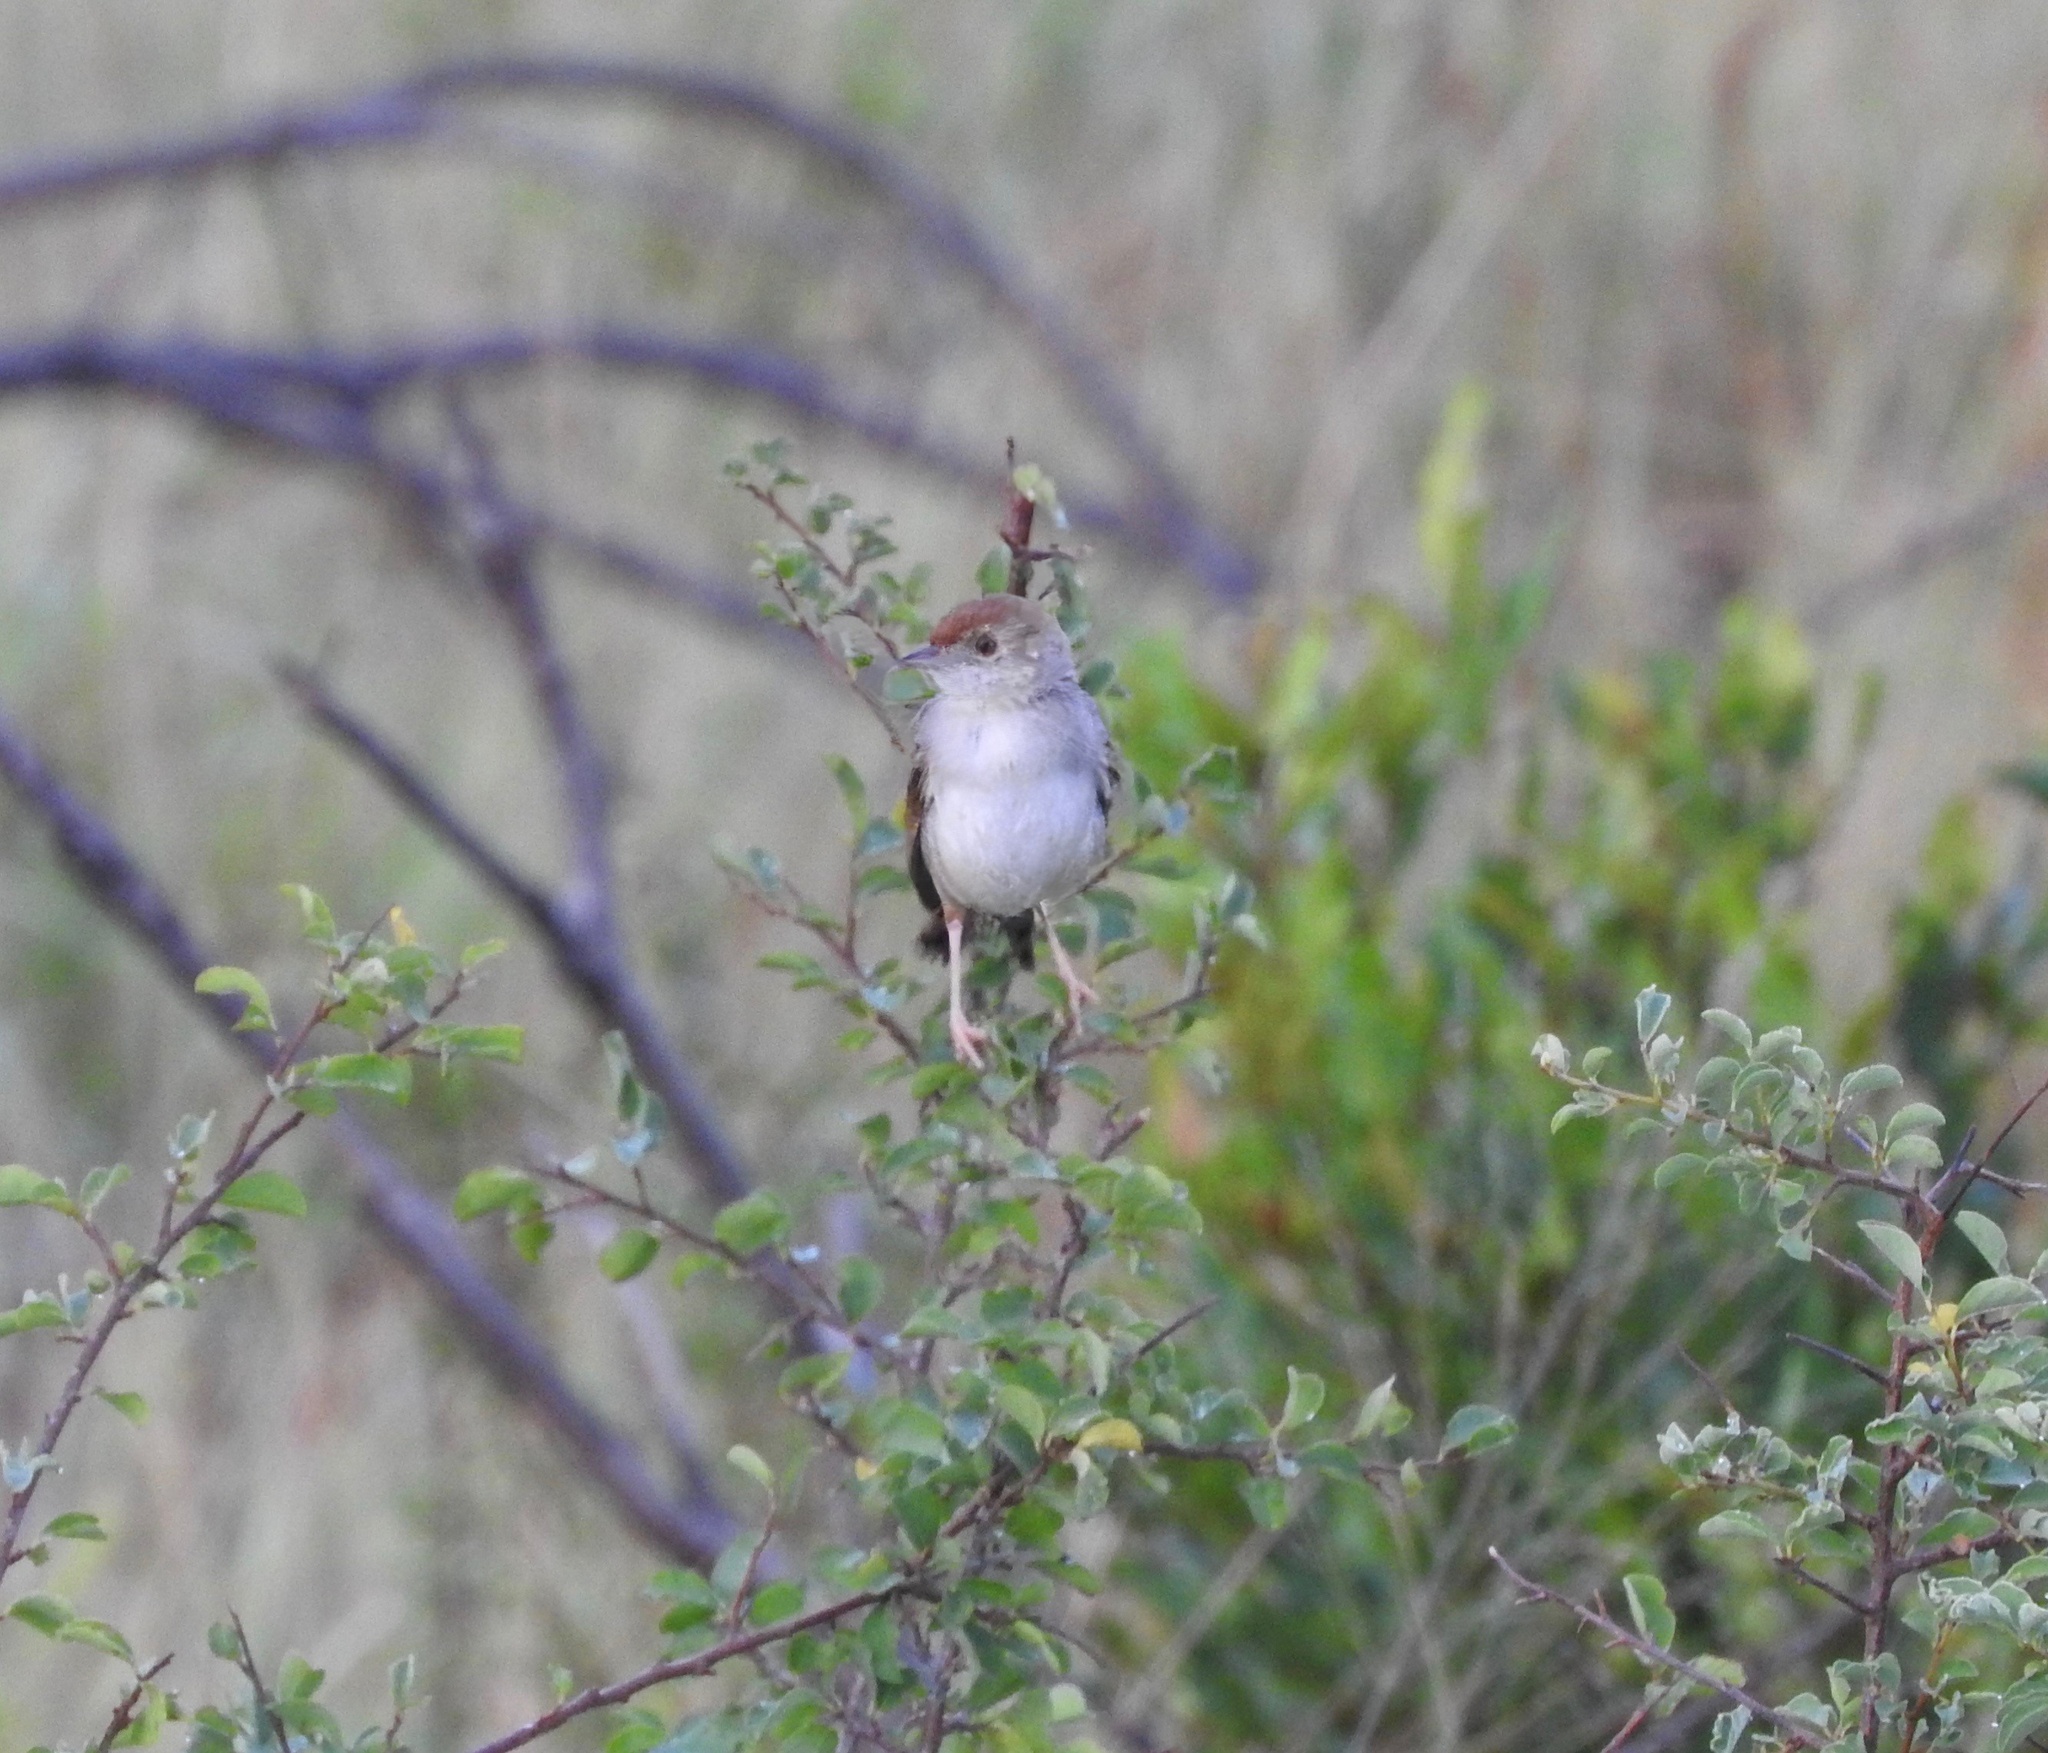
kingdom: Animalia
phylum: Chordata
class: Aves
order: Passeriformes
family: Cisticolidae
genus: Cisticola
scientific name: Cisticola chiniana
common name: Rattling cisticola
